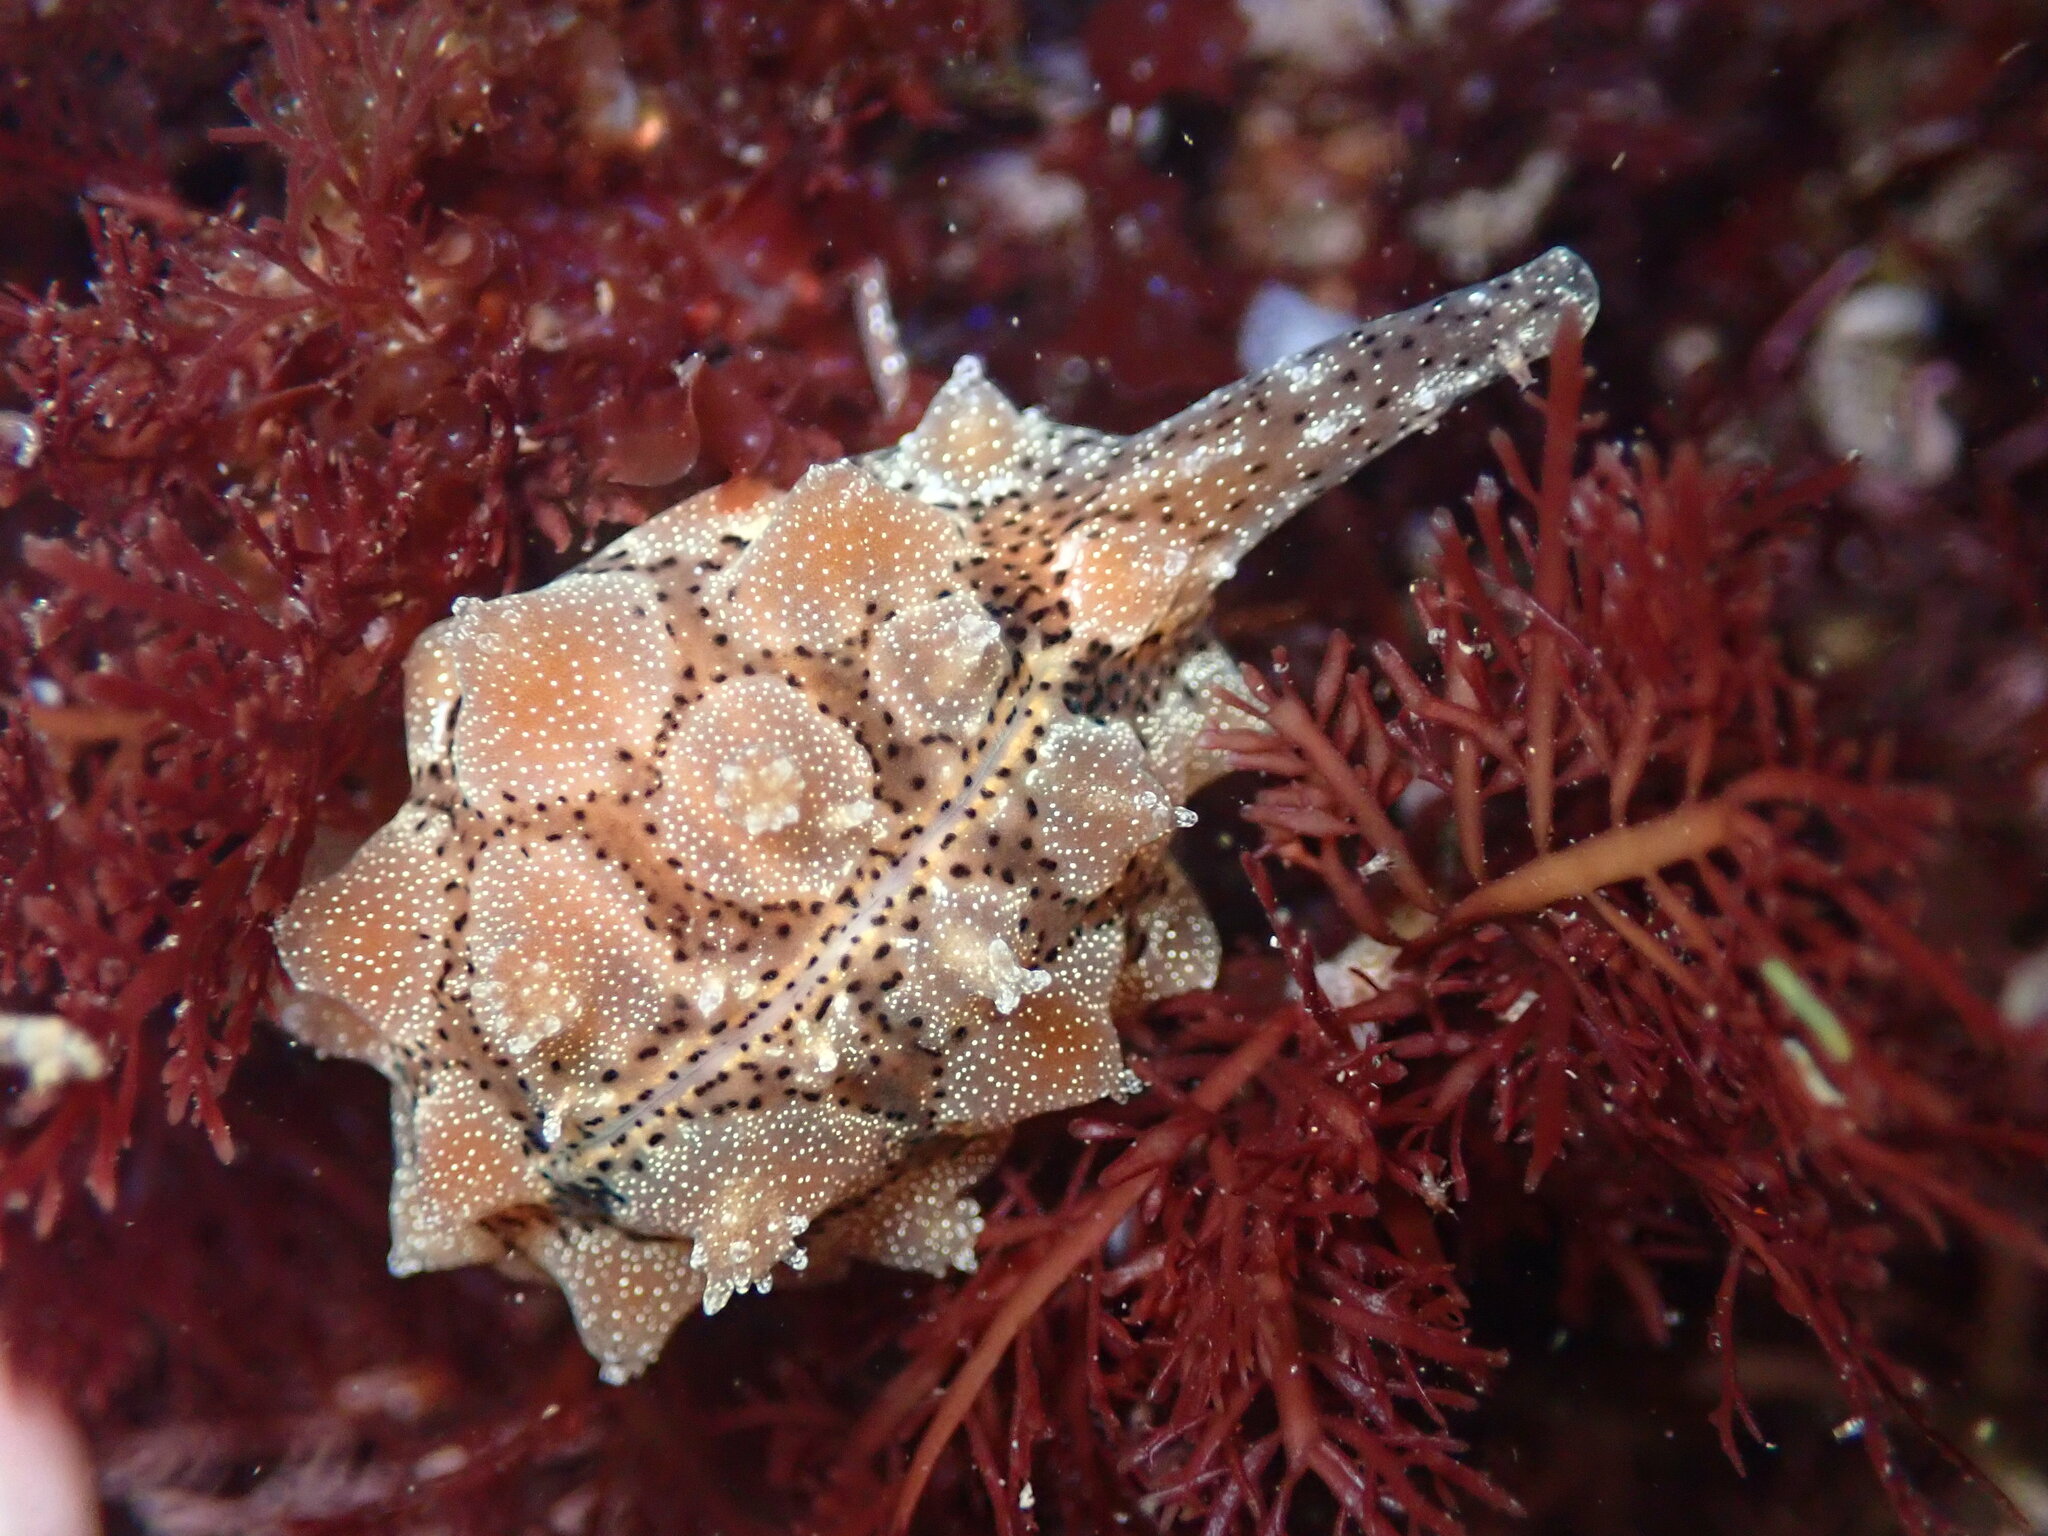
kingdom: Animalia
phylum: Mollusca
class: Gastropoda
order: Littorinimorpha
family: Triviidae
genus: Pusula
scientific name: Pusula solandri
